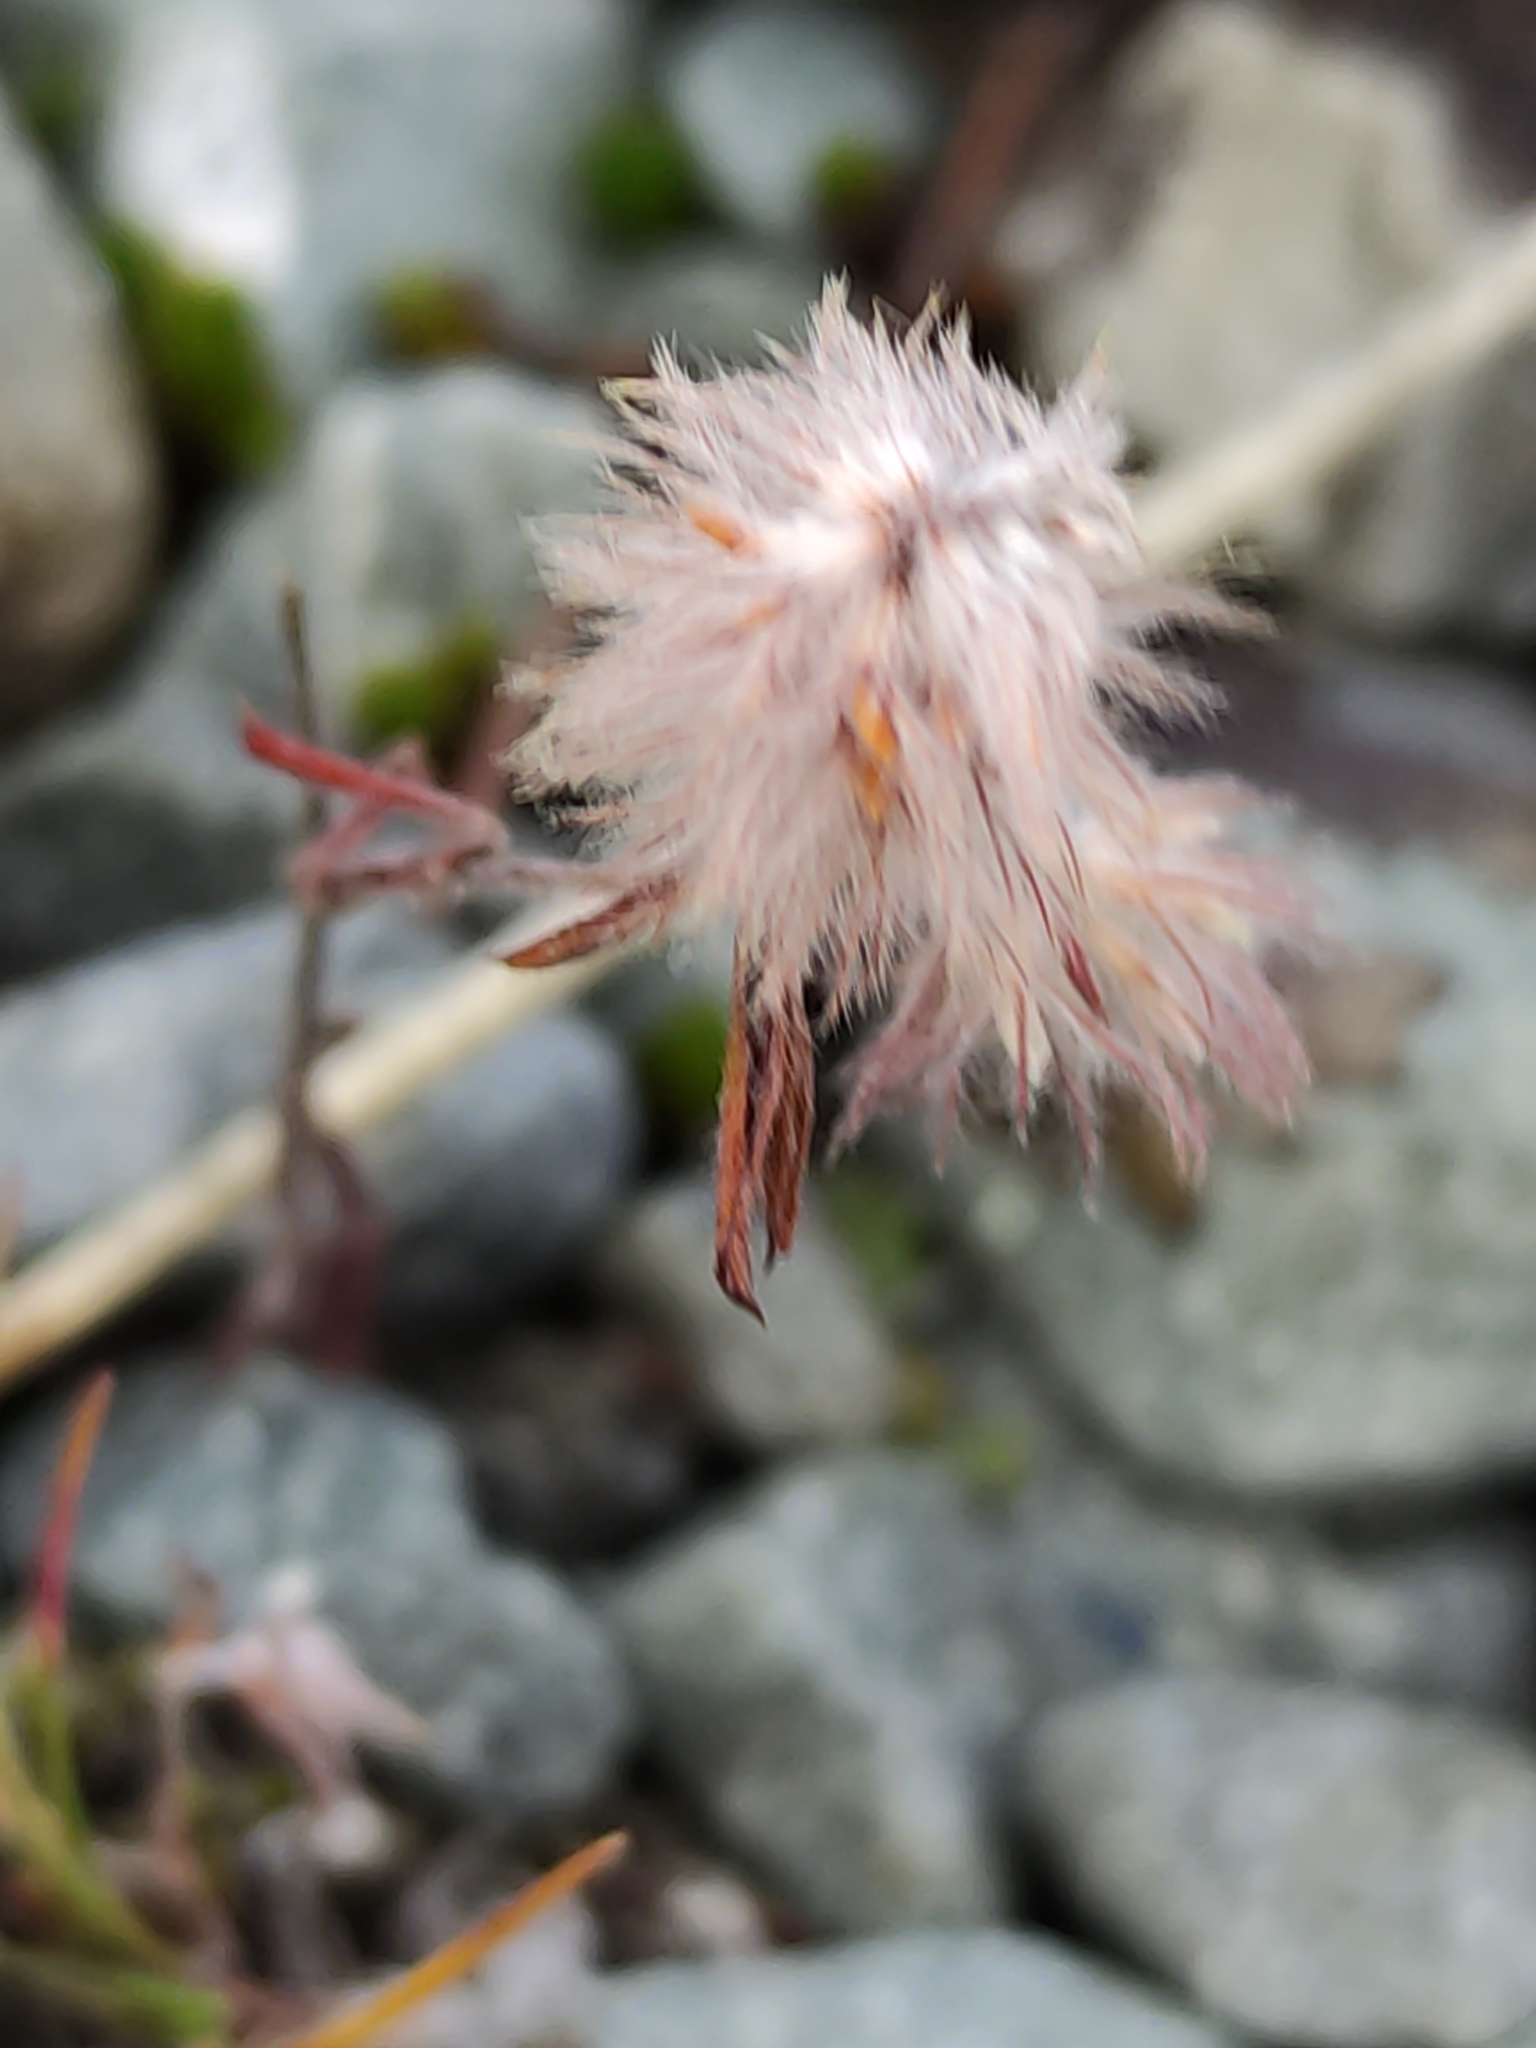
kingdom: Plantae
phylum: Tracheophyta
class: Magnoliopsida
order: Fabales
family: Fabaceae
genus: Trifolium
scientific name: Trifolium arvense
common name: Hare's-foot clover
